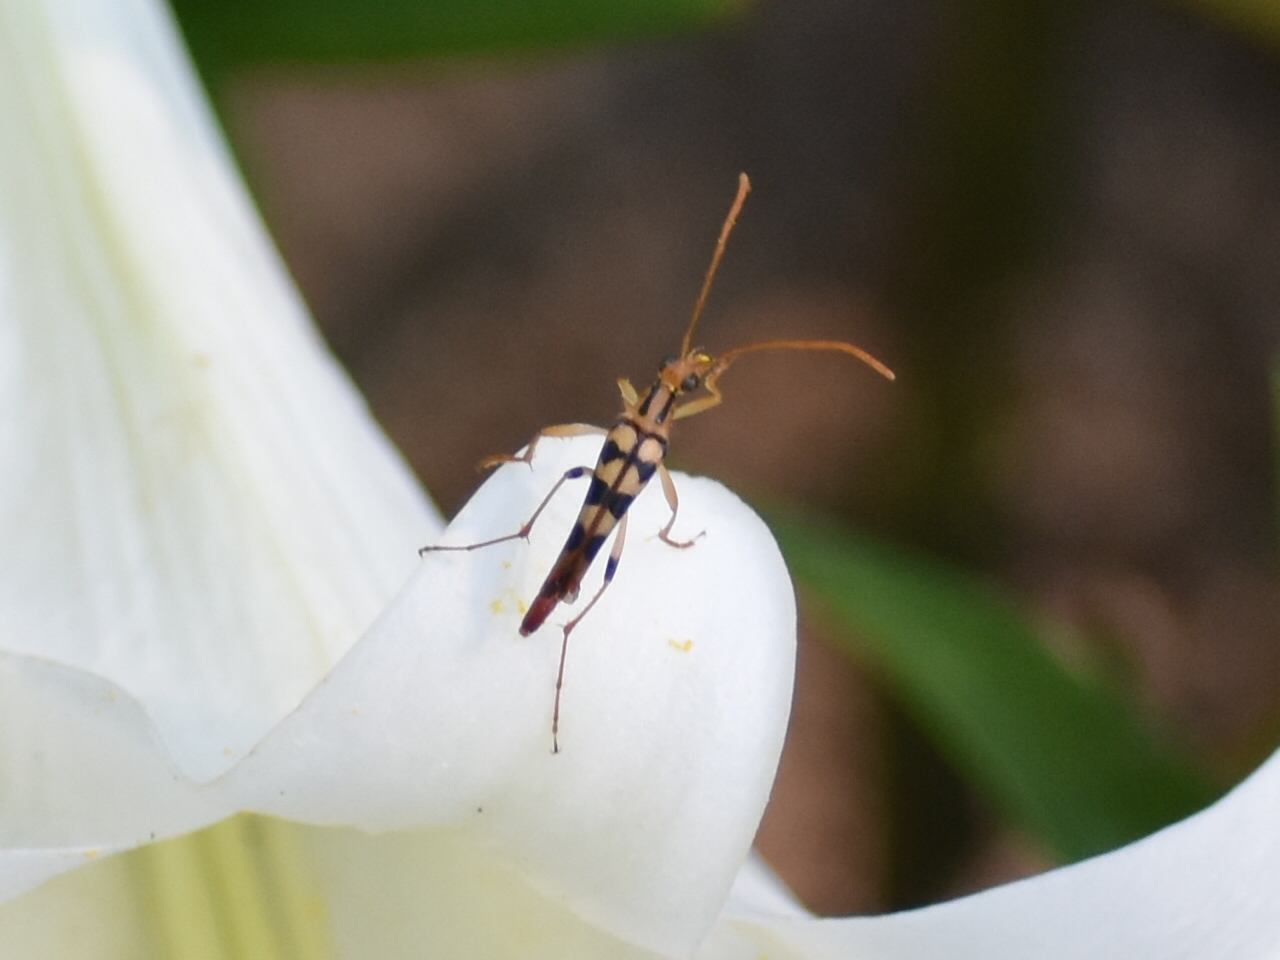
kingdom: Animalia
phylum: Arthropoda
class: Insecta
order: Coleoptera
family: Cerambycidae
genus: Strangalia
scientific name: Strangalia luteicornis
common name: Yellow-horned flower longhorn beetle
